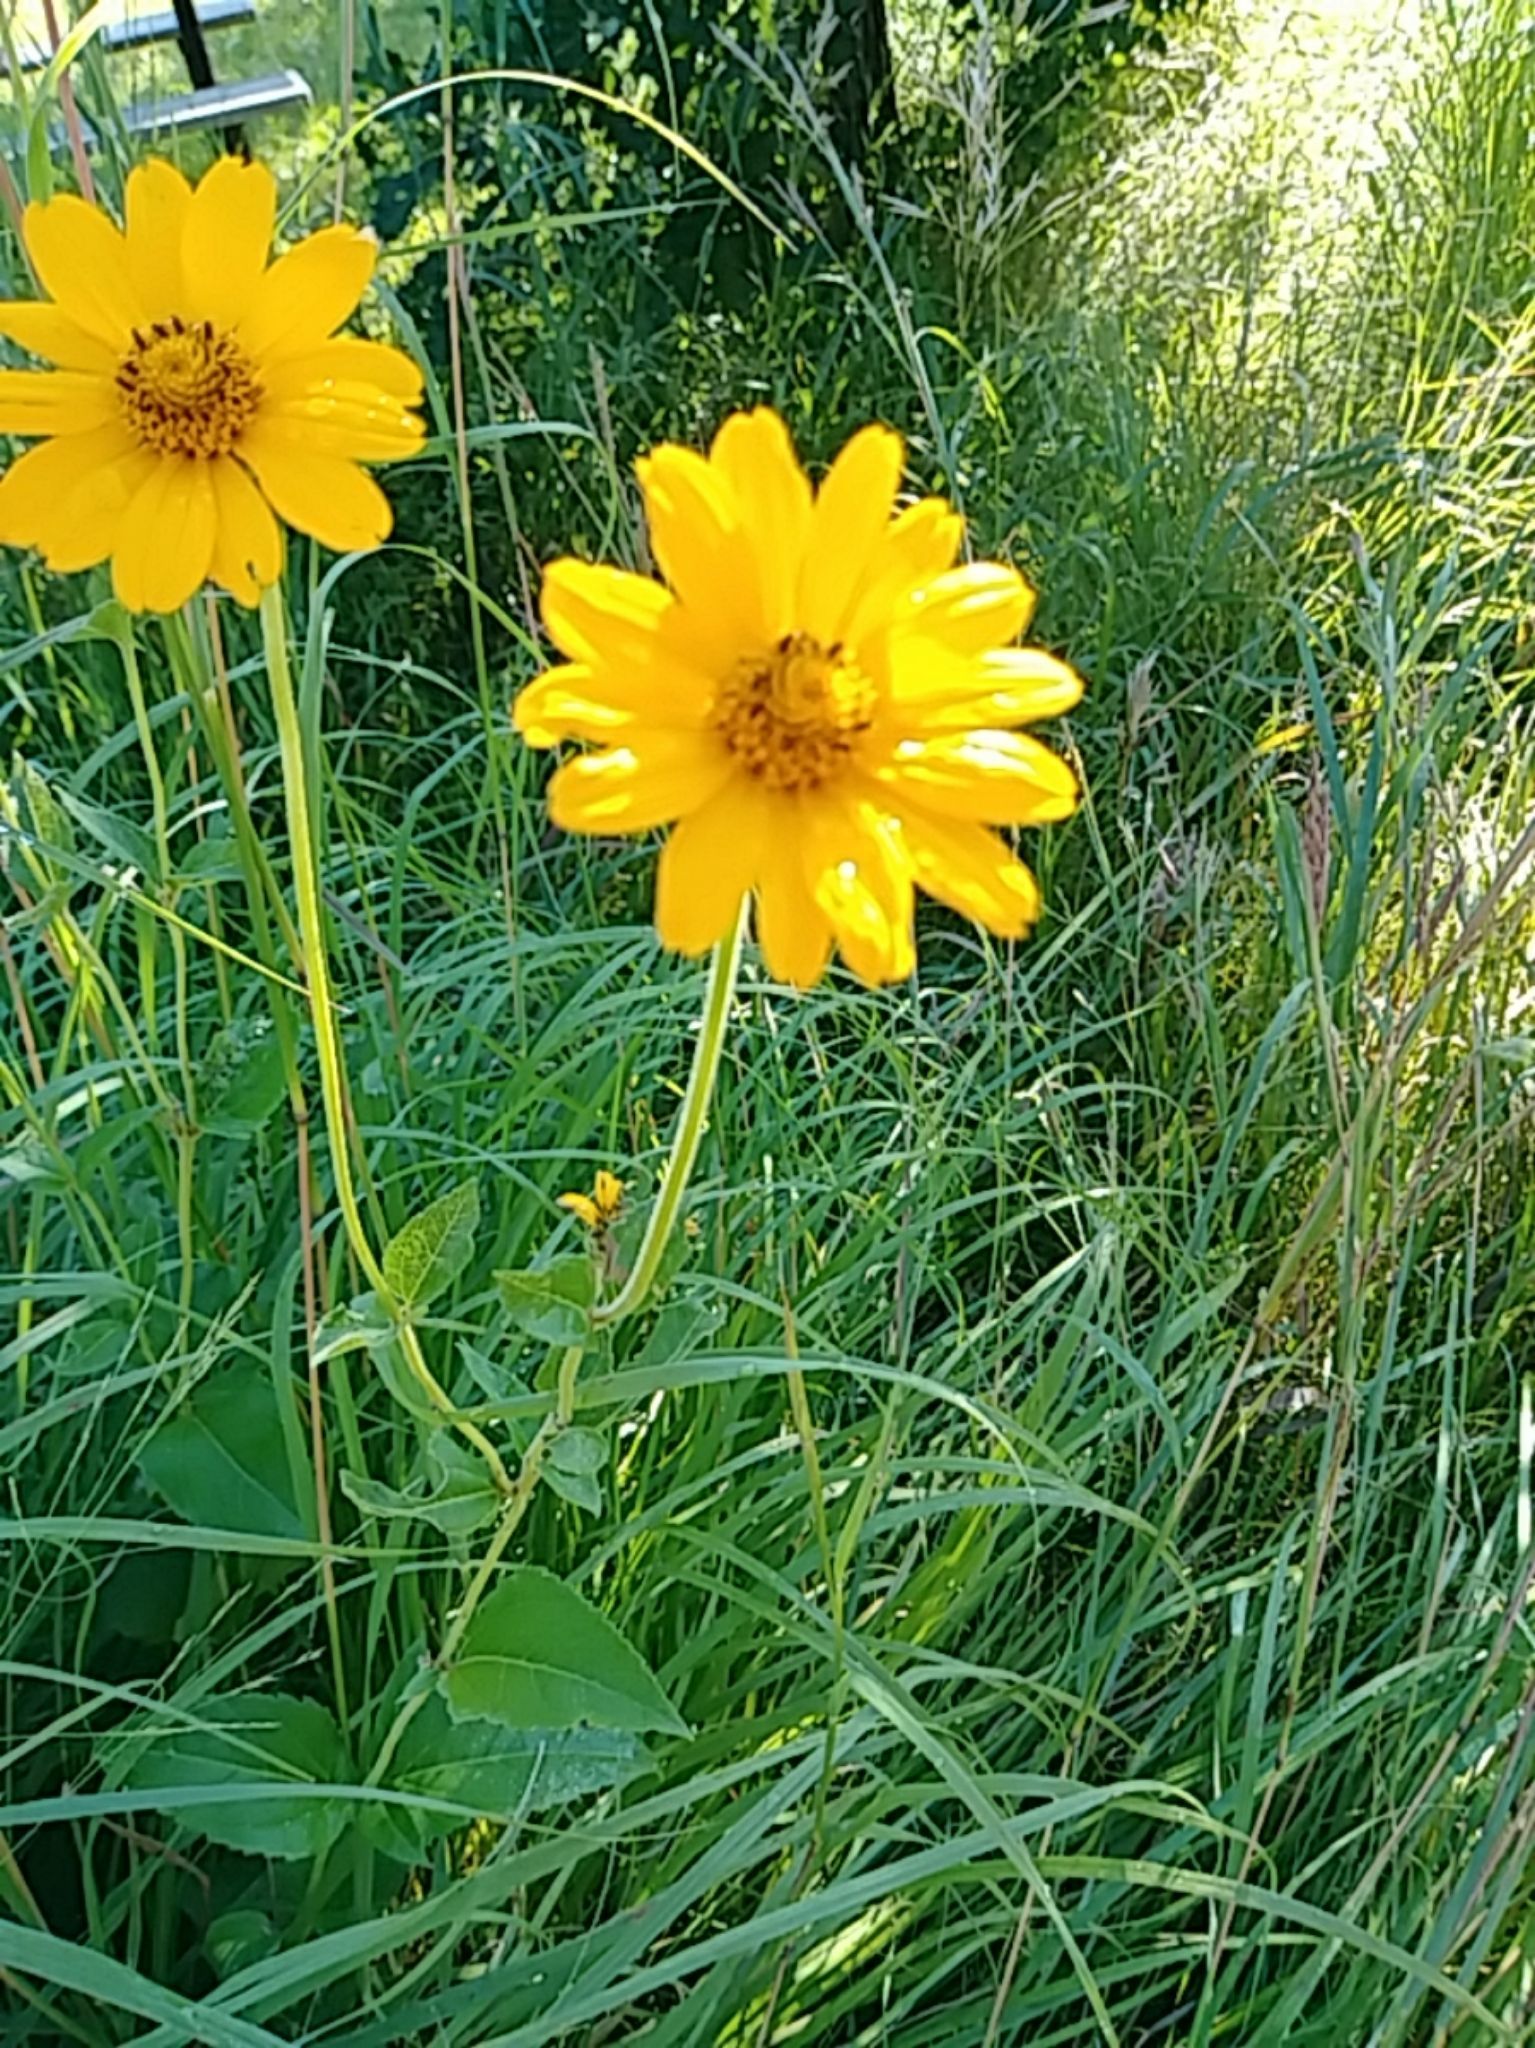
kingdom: Plantae
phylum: Tracheophyta
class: Magnoliopsida
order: Asterales
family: Asteraceae
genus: Heliopsis
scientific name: Heliopsis helianthoides
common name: False sunflower
